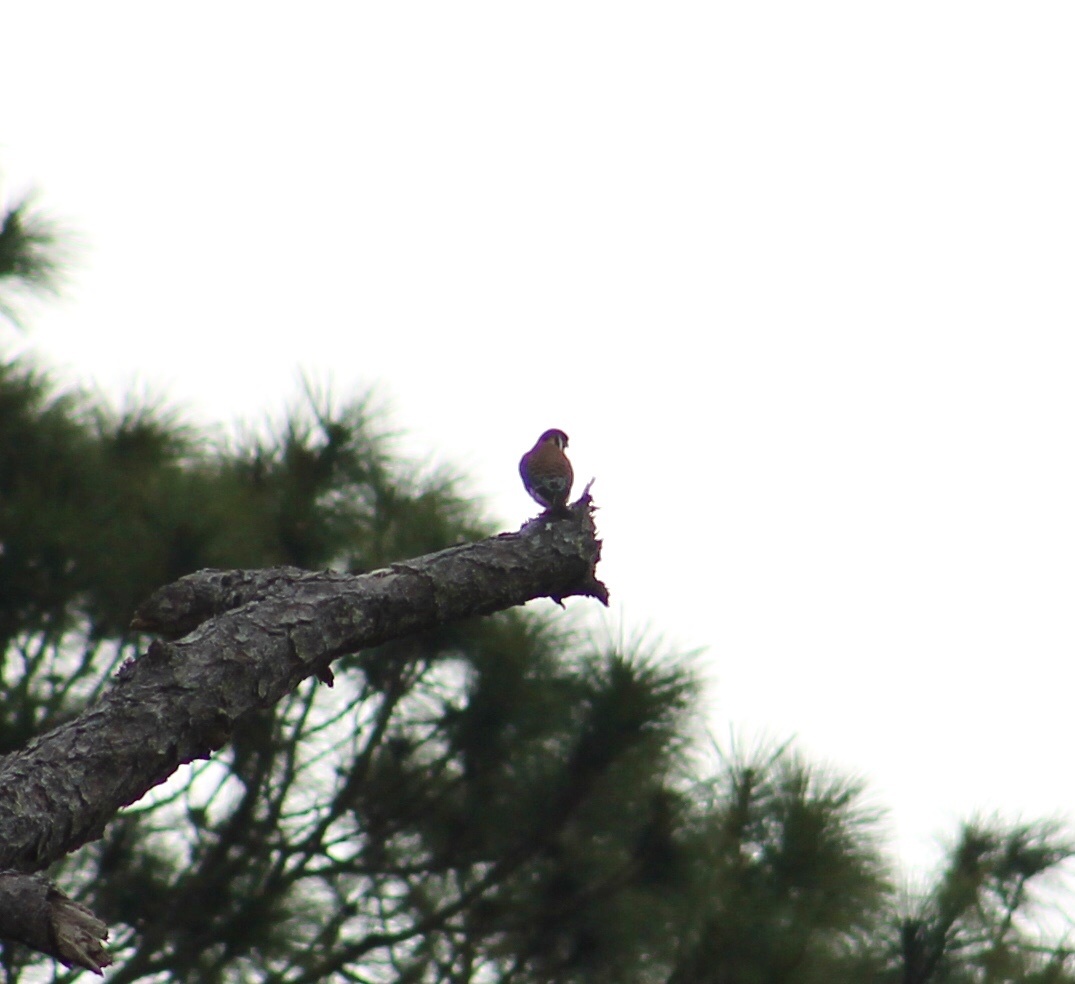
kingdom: Animalia
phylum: Chordata
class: Aves
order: Falconiformes
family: Falconidae
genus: Falco
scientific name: Falco sparverius
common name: American kestrel
